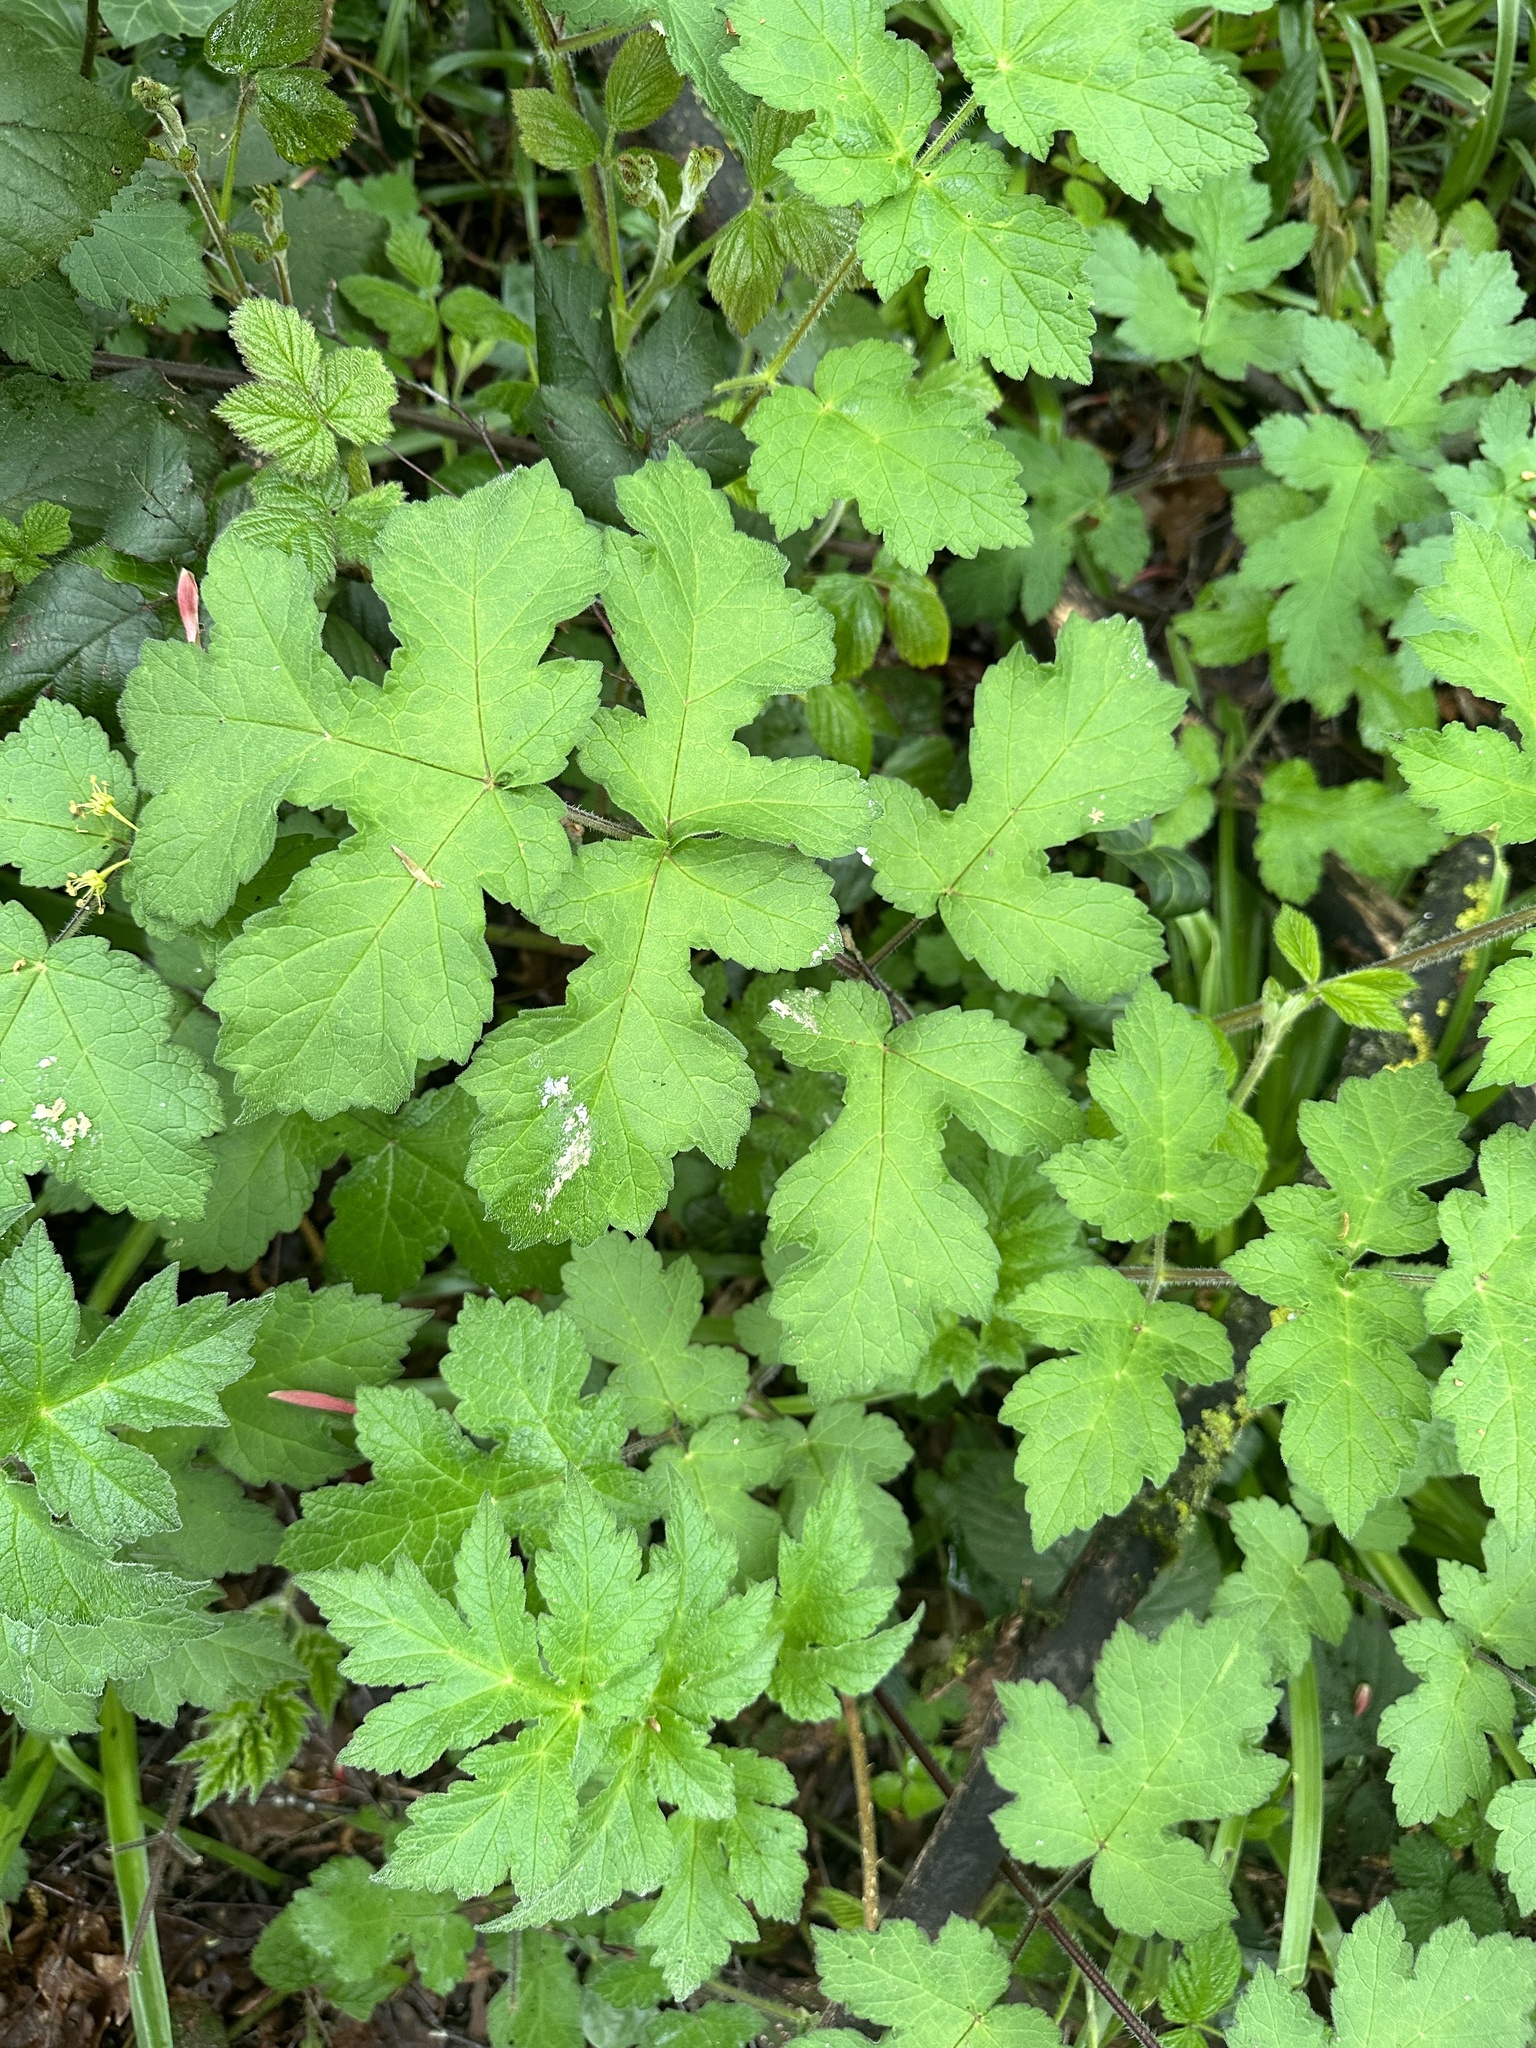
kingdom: Plantae
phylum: Tracheophyta
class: Magnoliopsida
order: Apiales
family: Apiaceae
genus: Heracleum
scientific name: Heracleum sphondylium
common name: Hogweed
